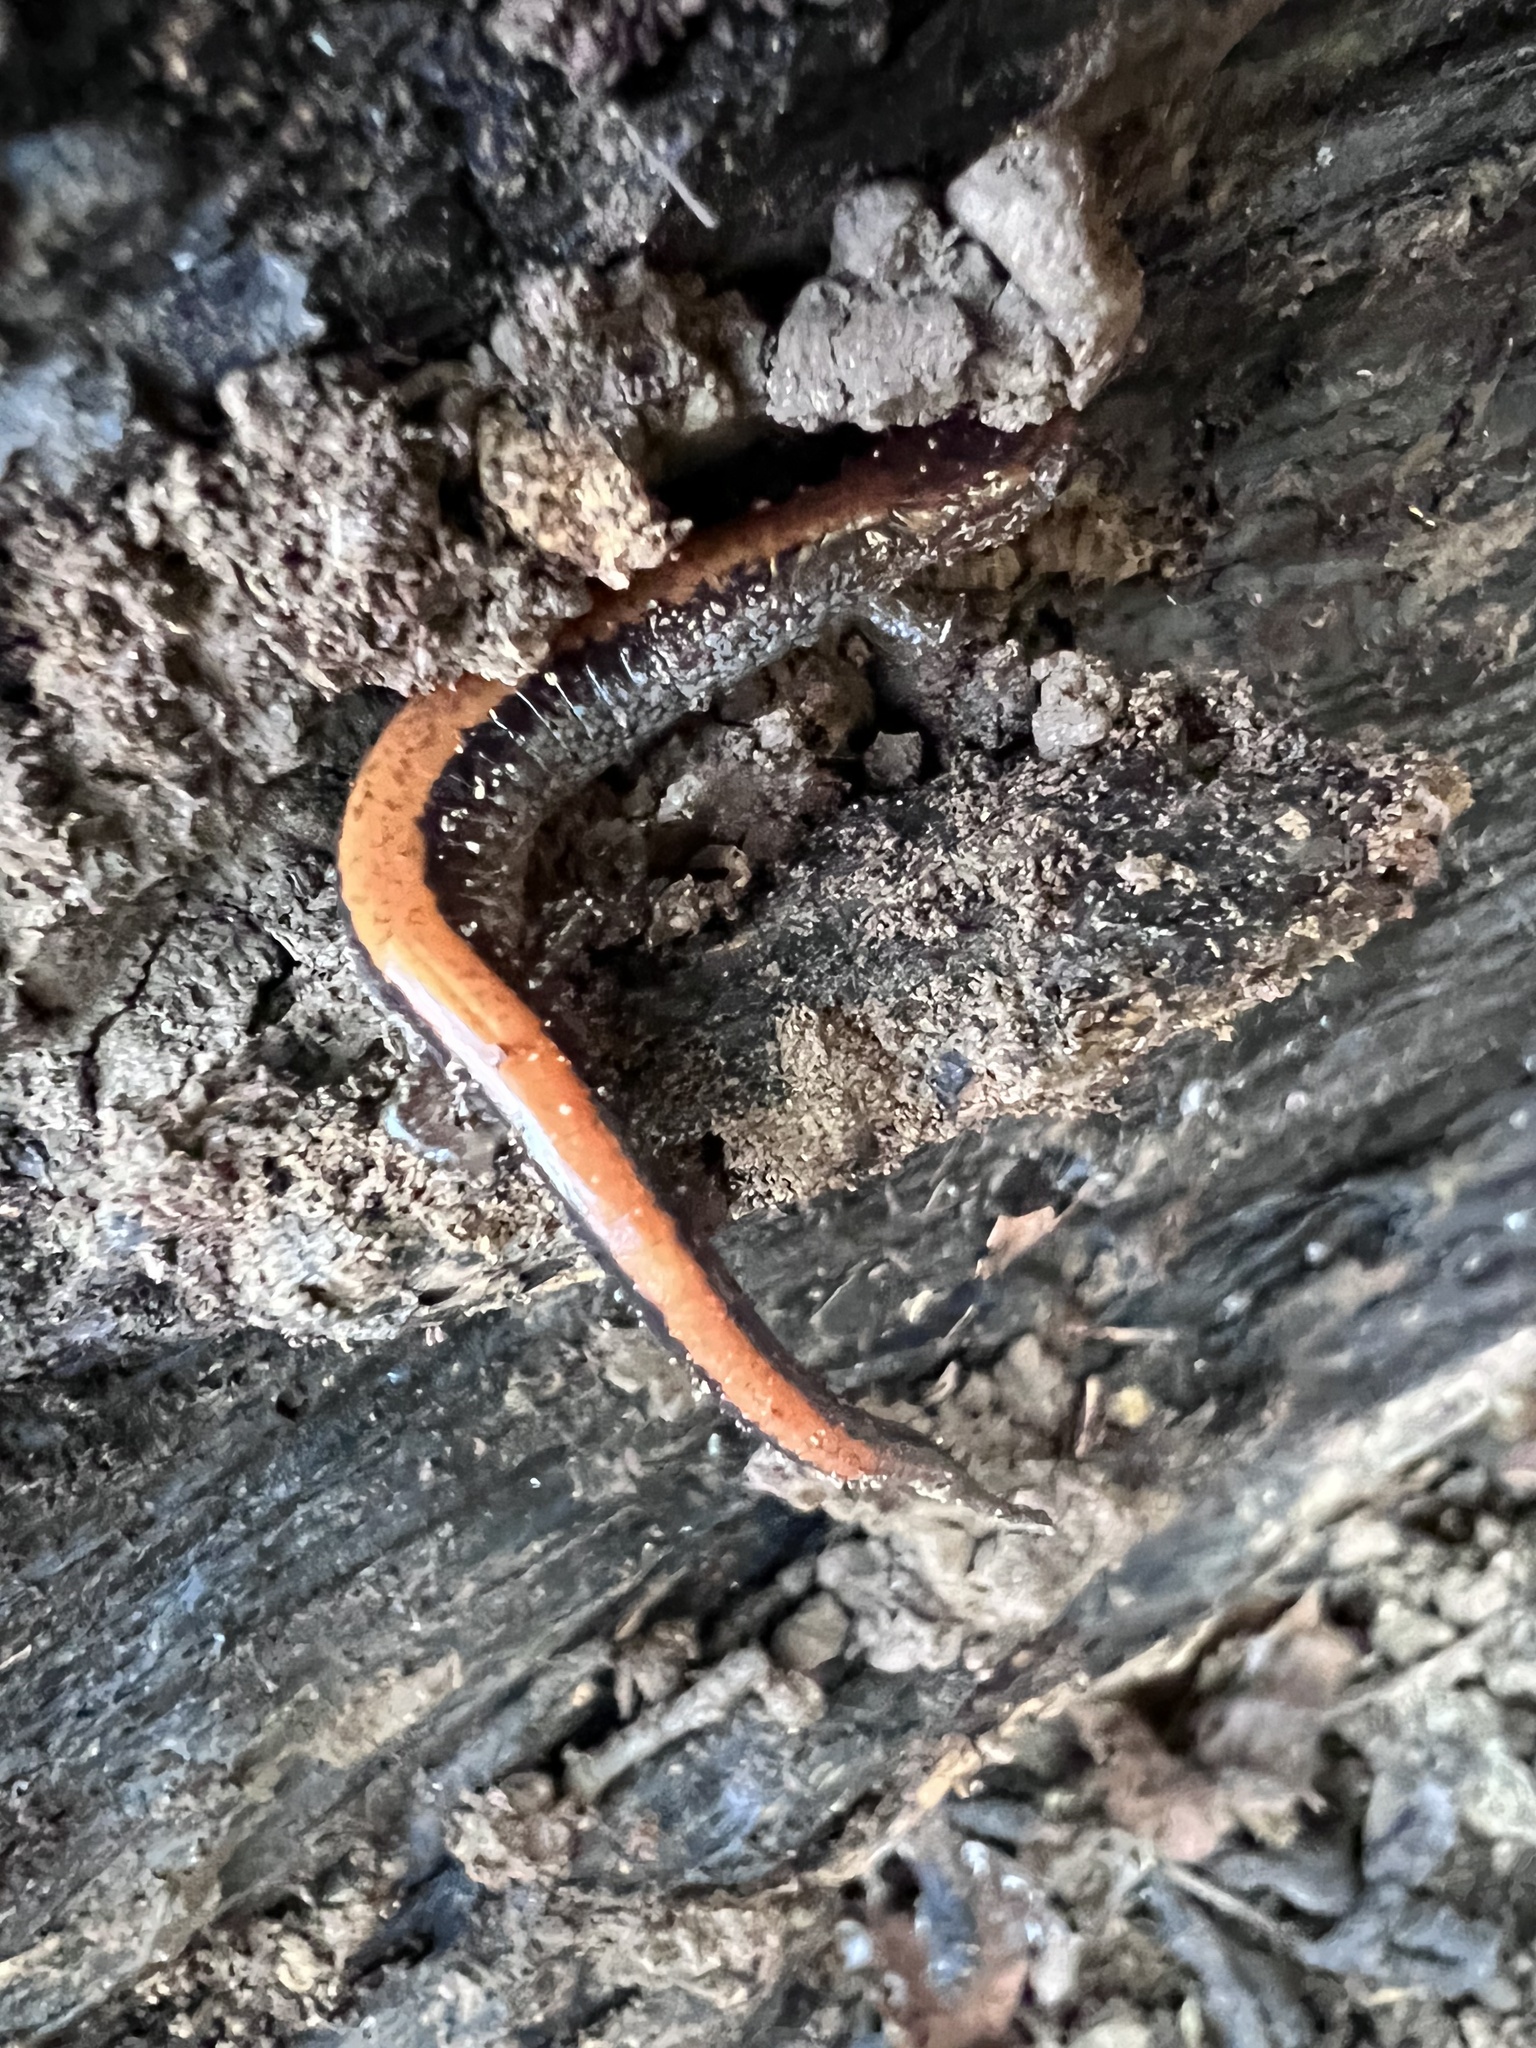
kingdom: Animalia
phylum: Chordata
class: Amphibia
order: Caudata
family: Plethodontidae
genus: Plethodon
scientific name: Plethodon cinereus
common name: Redback salamander
